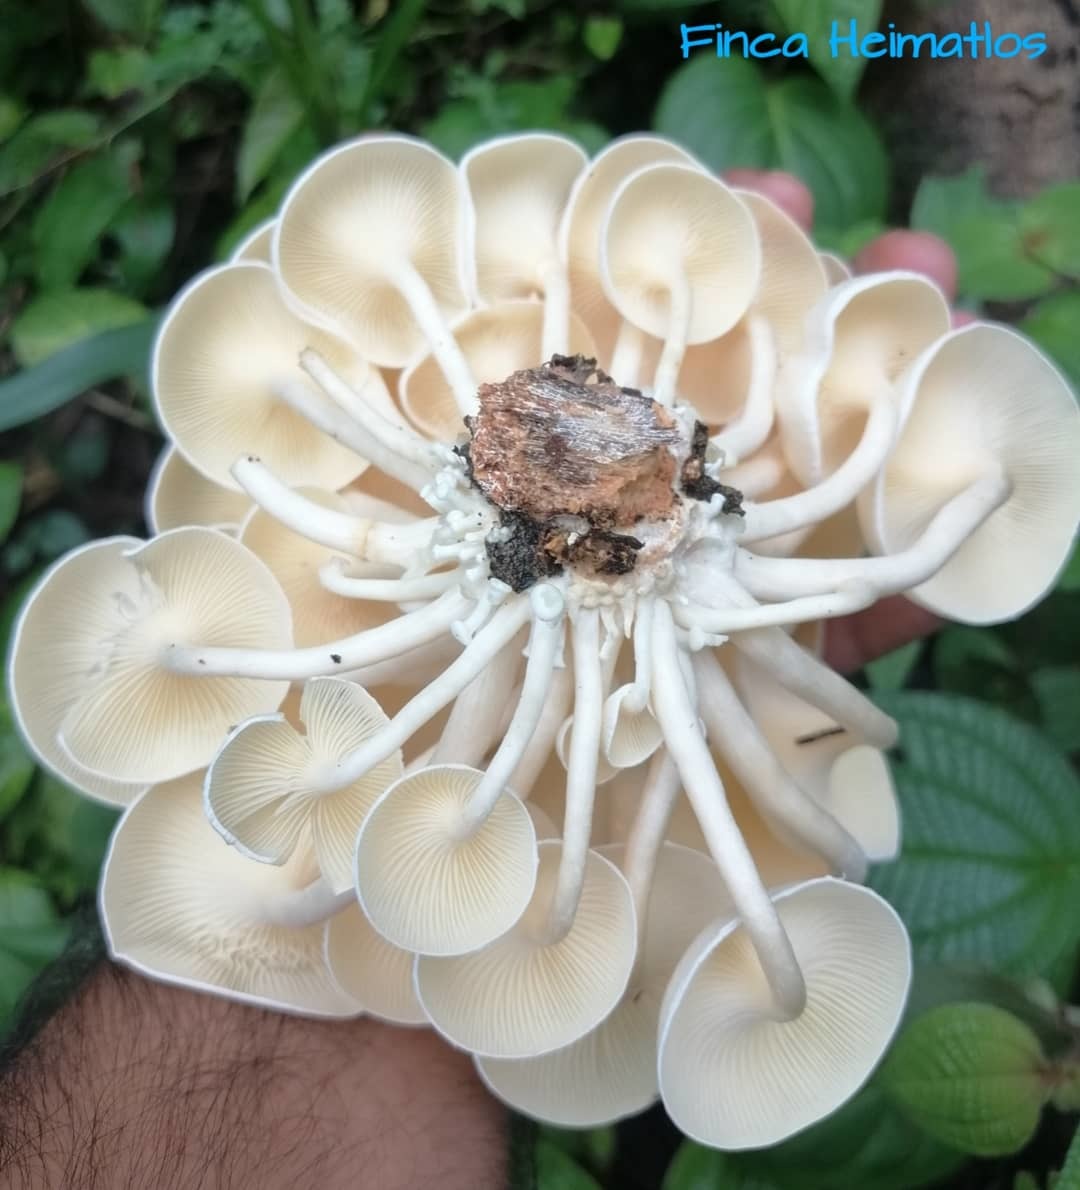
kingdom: Fungi
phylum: Basidiomycota
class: Agaricomycetes
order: Polyporales
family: Polyporaceae
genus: Lentinus
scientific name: Lentinus concavus
